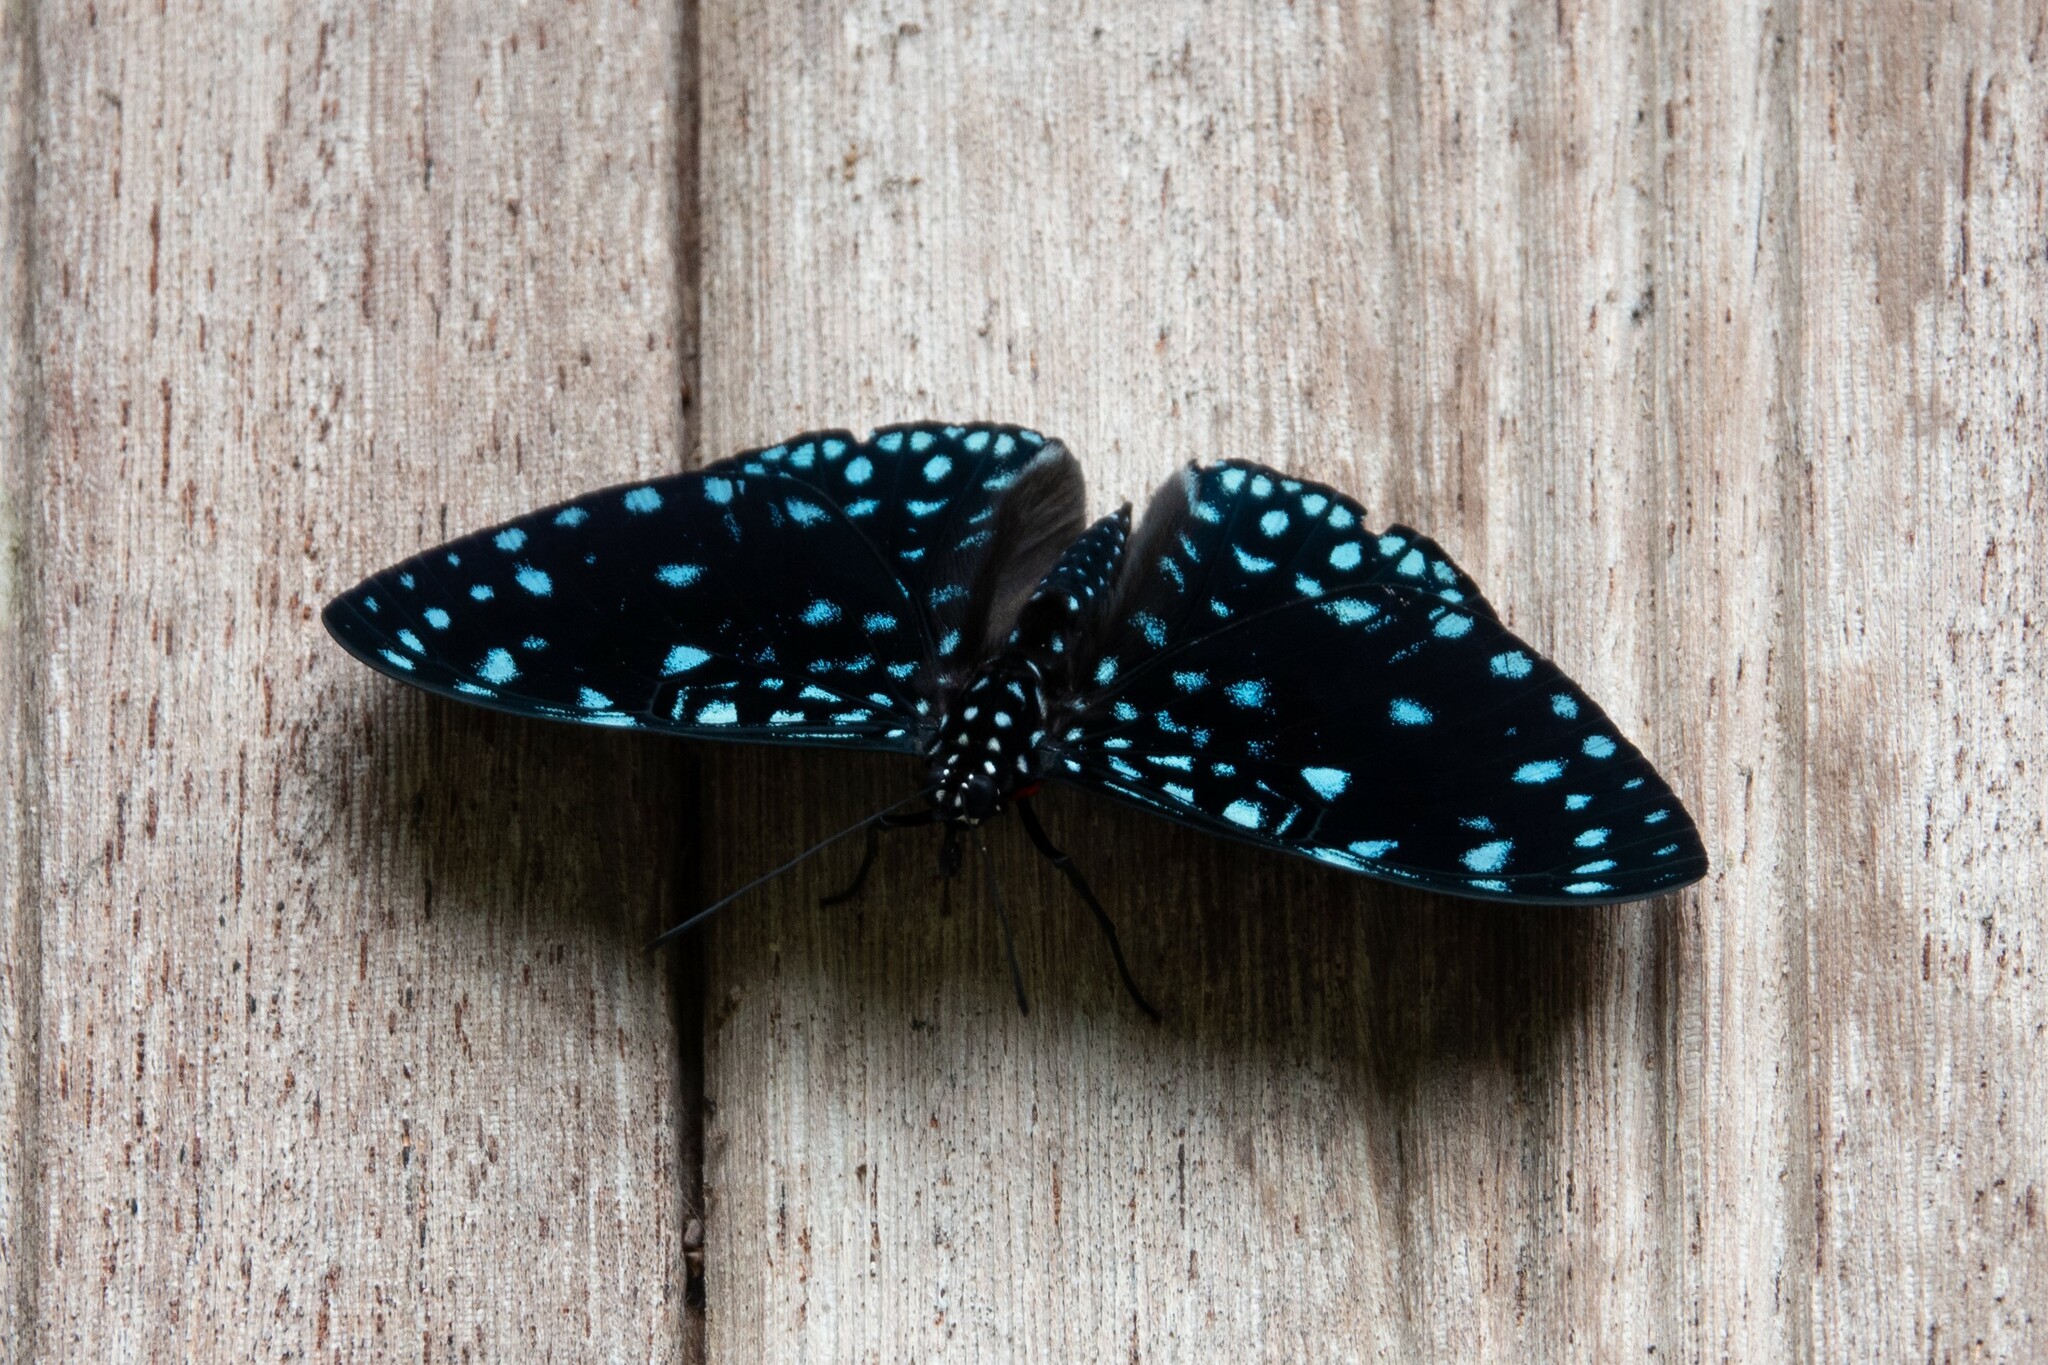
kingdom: Animalia
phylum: Arthropoda
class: Insecta
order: Lepidoptera
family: Nymphalidae
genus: Hamadryas
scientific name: Hamadryas laodamia
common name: Starry night cracker
